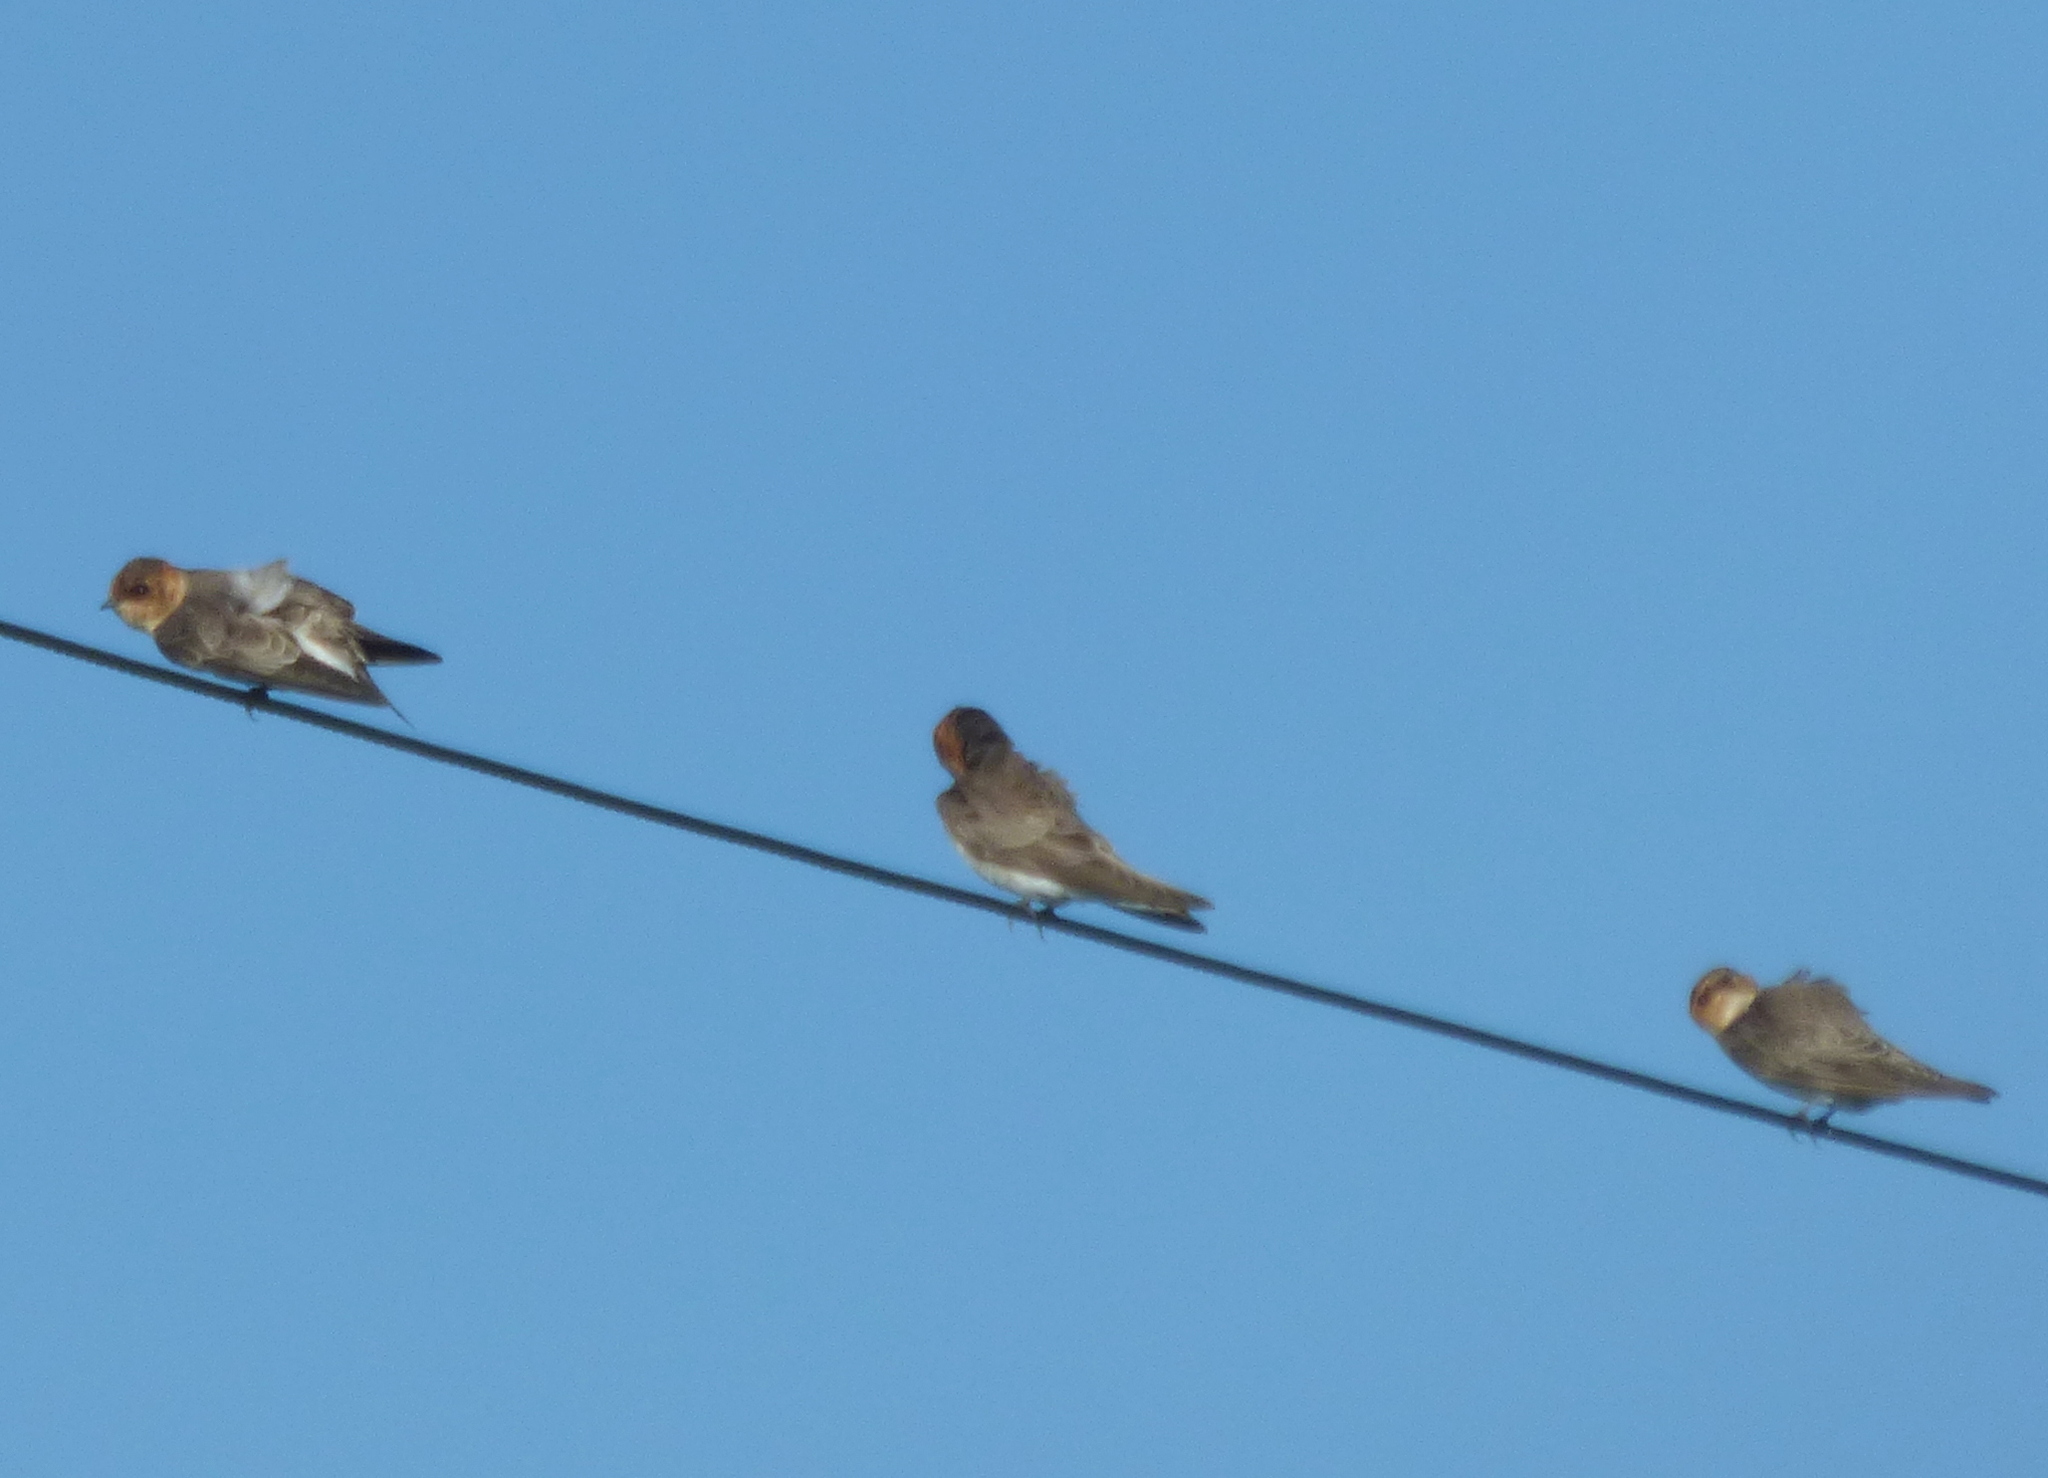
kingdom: Animalia
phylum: Chordata
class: Aves
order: Passeriformes
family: Hirundinidae
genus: Alopochelidon
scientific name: Alopochelidon fucata
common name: Tawny-headed swallow
